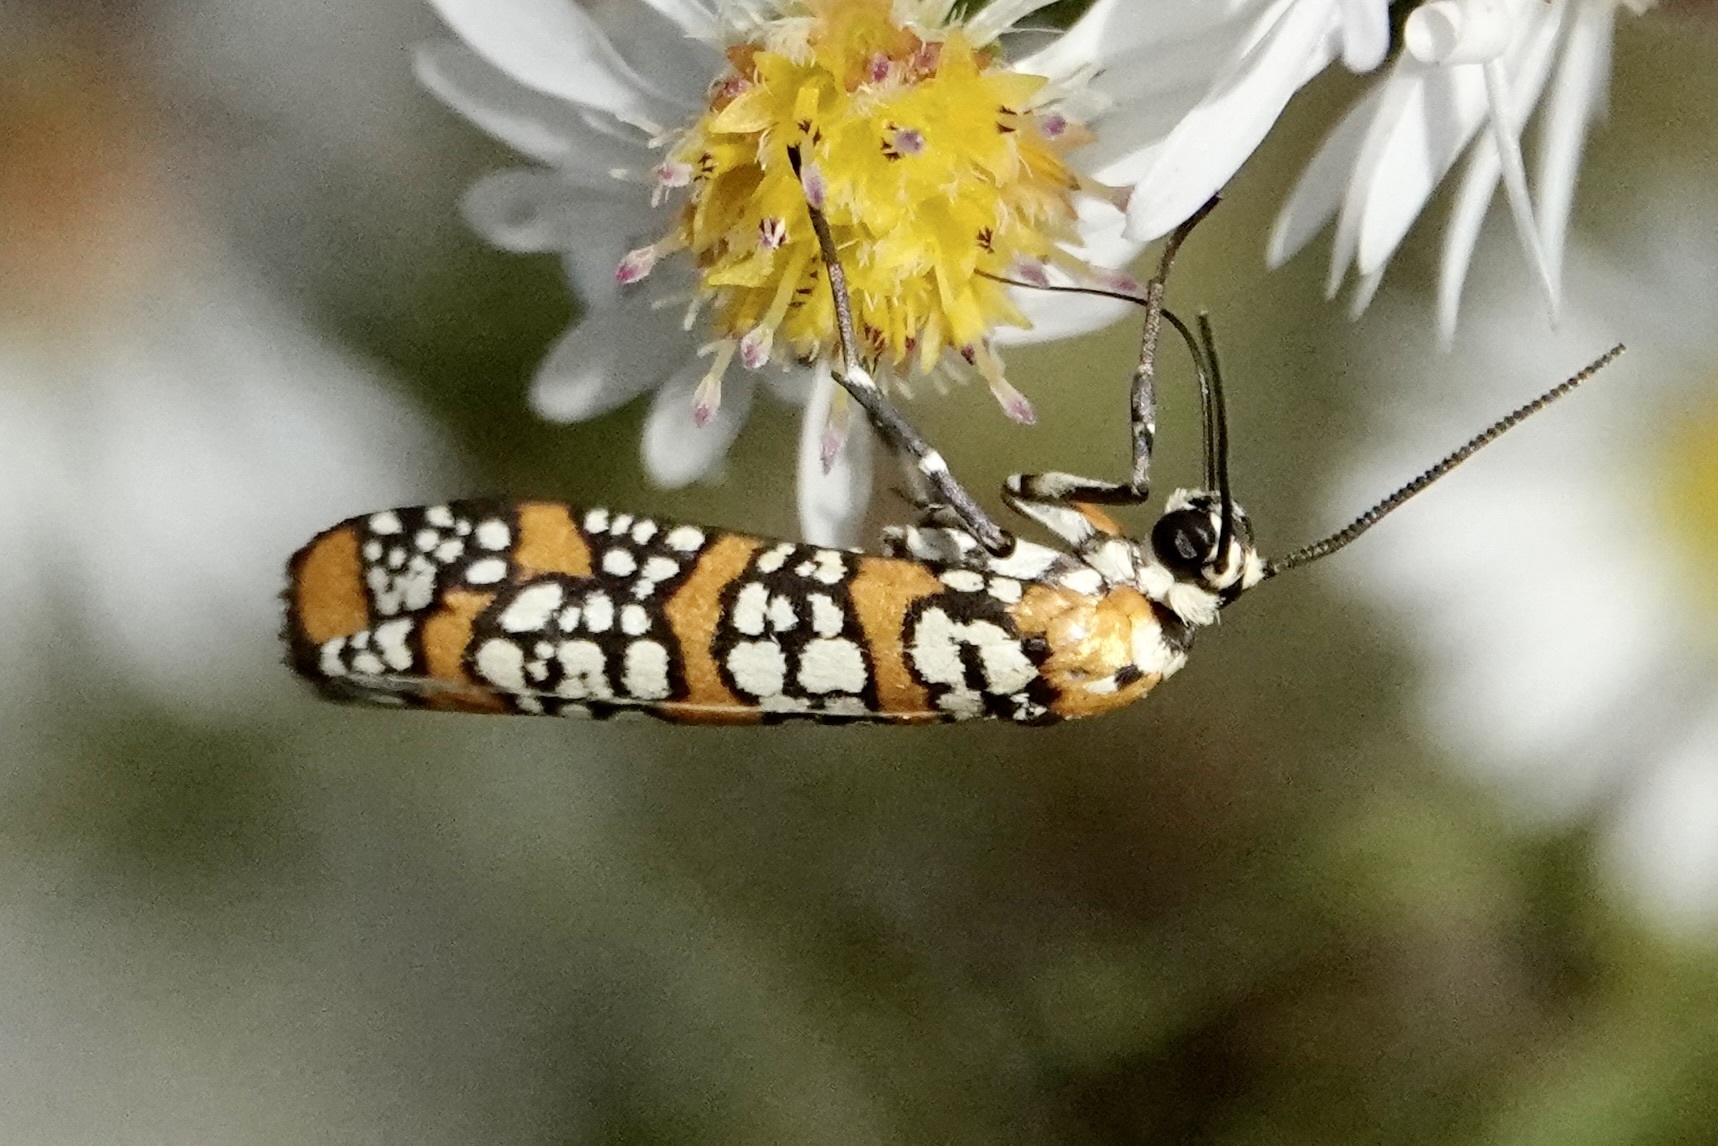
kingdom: Animalia
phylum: Arthropoda
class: Insecta
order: Lepidoptera
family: Attevidae
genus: Atteva
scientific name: Atteva punctella
